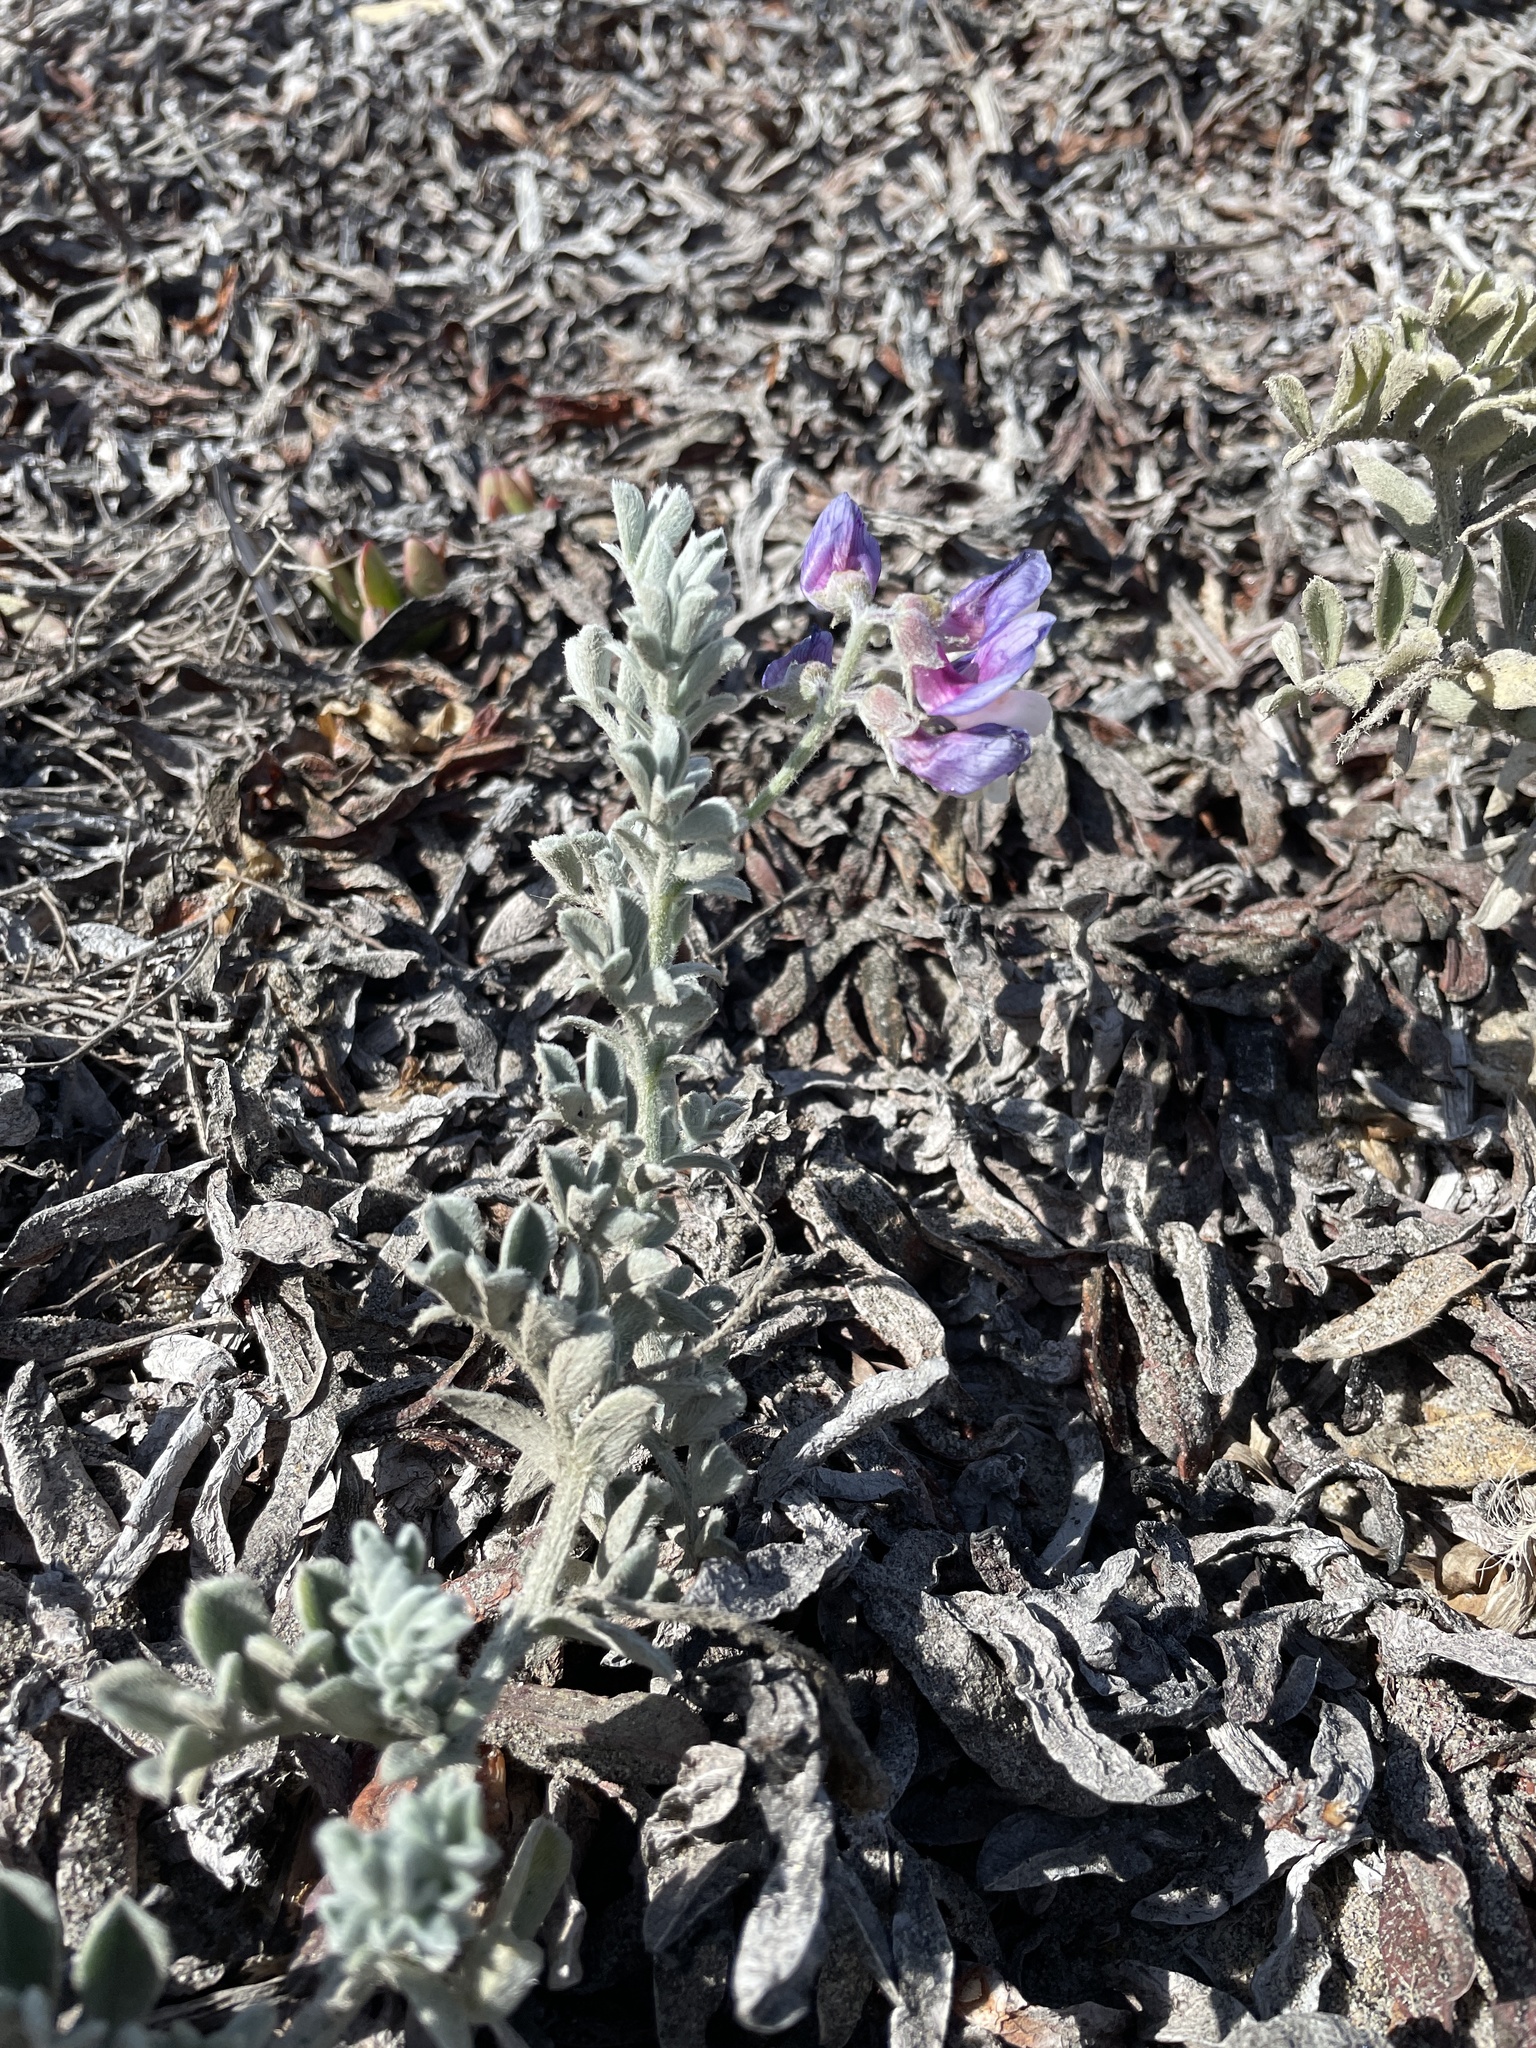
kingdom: Plantae
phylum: Tracheophyta
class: Magnoliopsida
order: Fabales
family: Fabaceae
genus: Lathyrus
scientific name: Lathyrus littoralis
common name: Dune sweet pea
